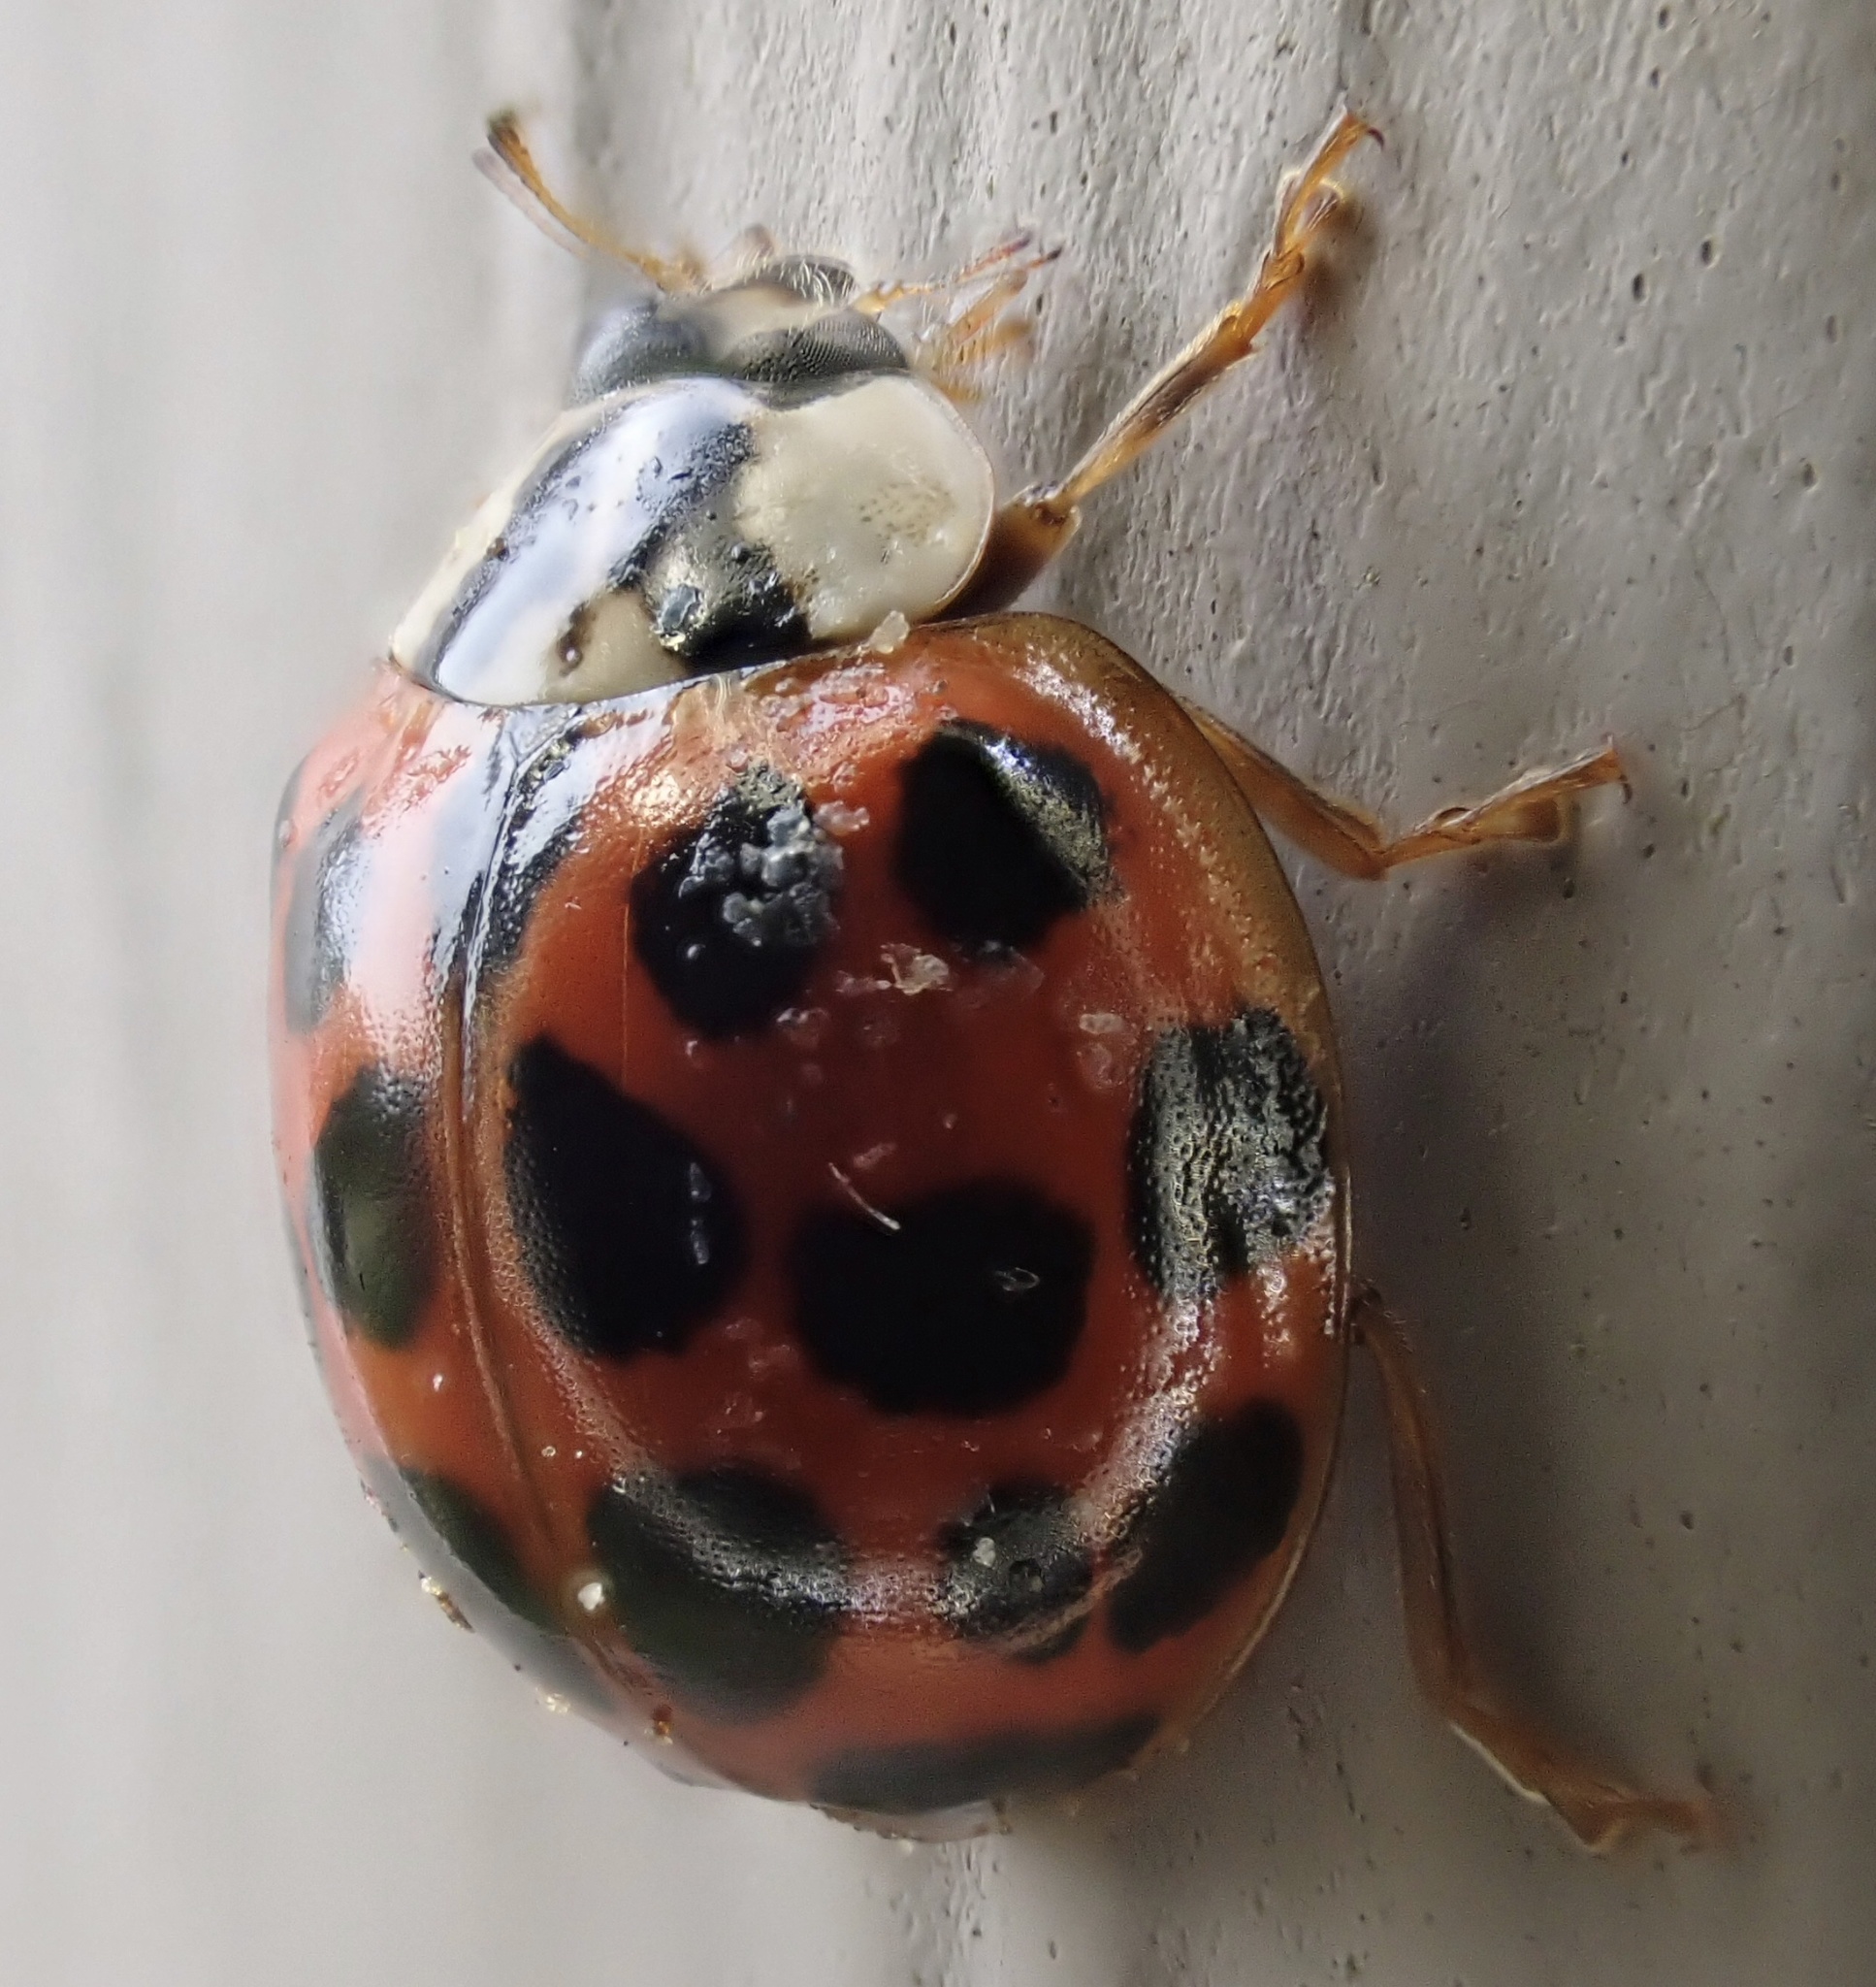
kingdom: Animalia
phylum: Arthropoda
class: Insecta
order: Coleoptera
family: Coccinellidae
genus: Harmonia
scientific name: Harmonia axyridis
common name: Harlequin ladybird
